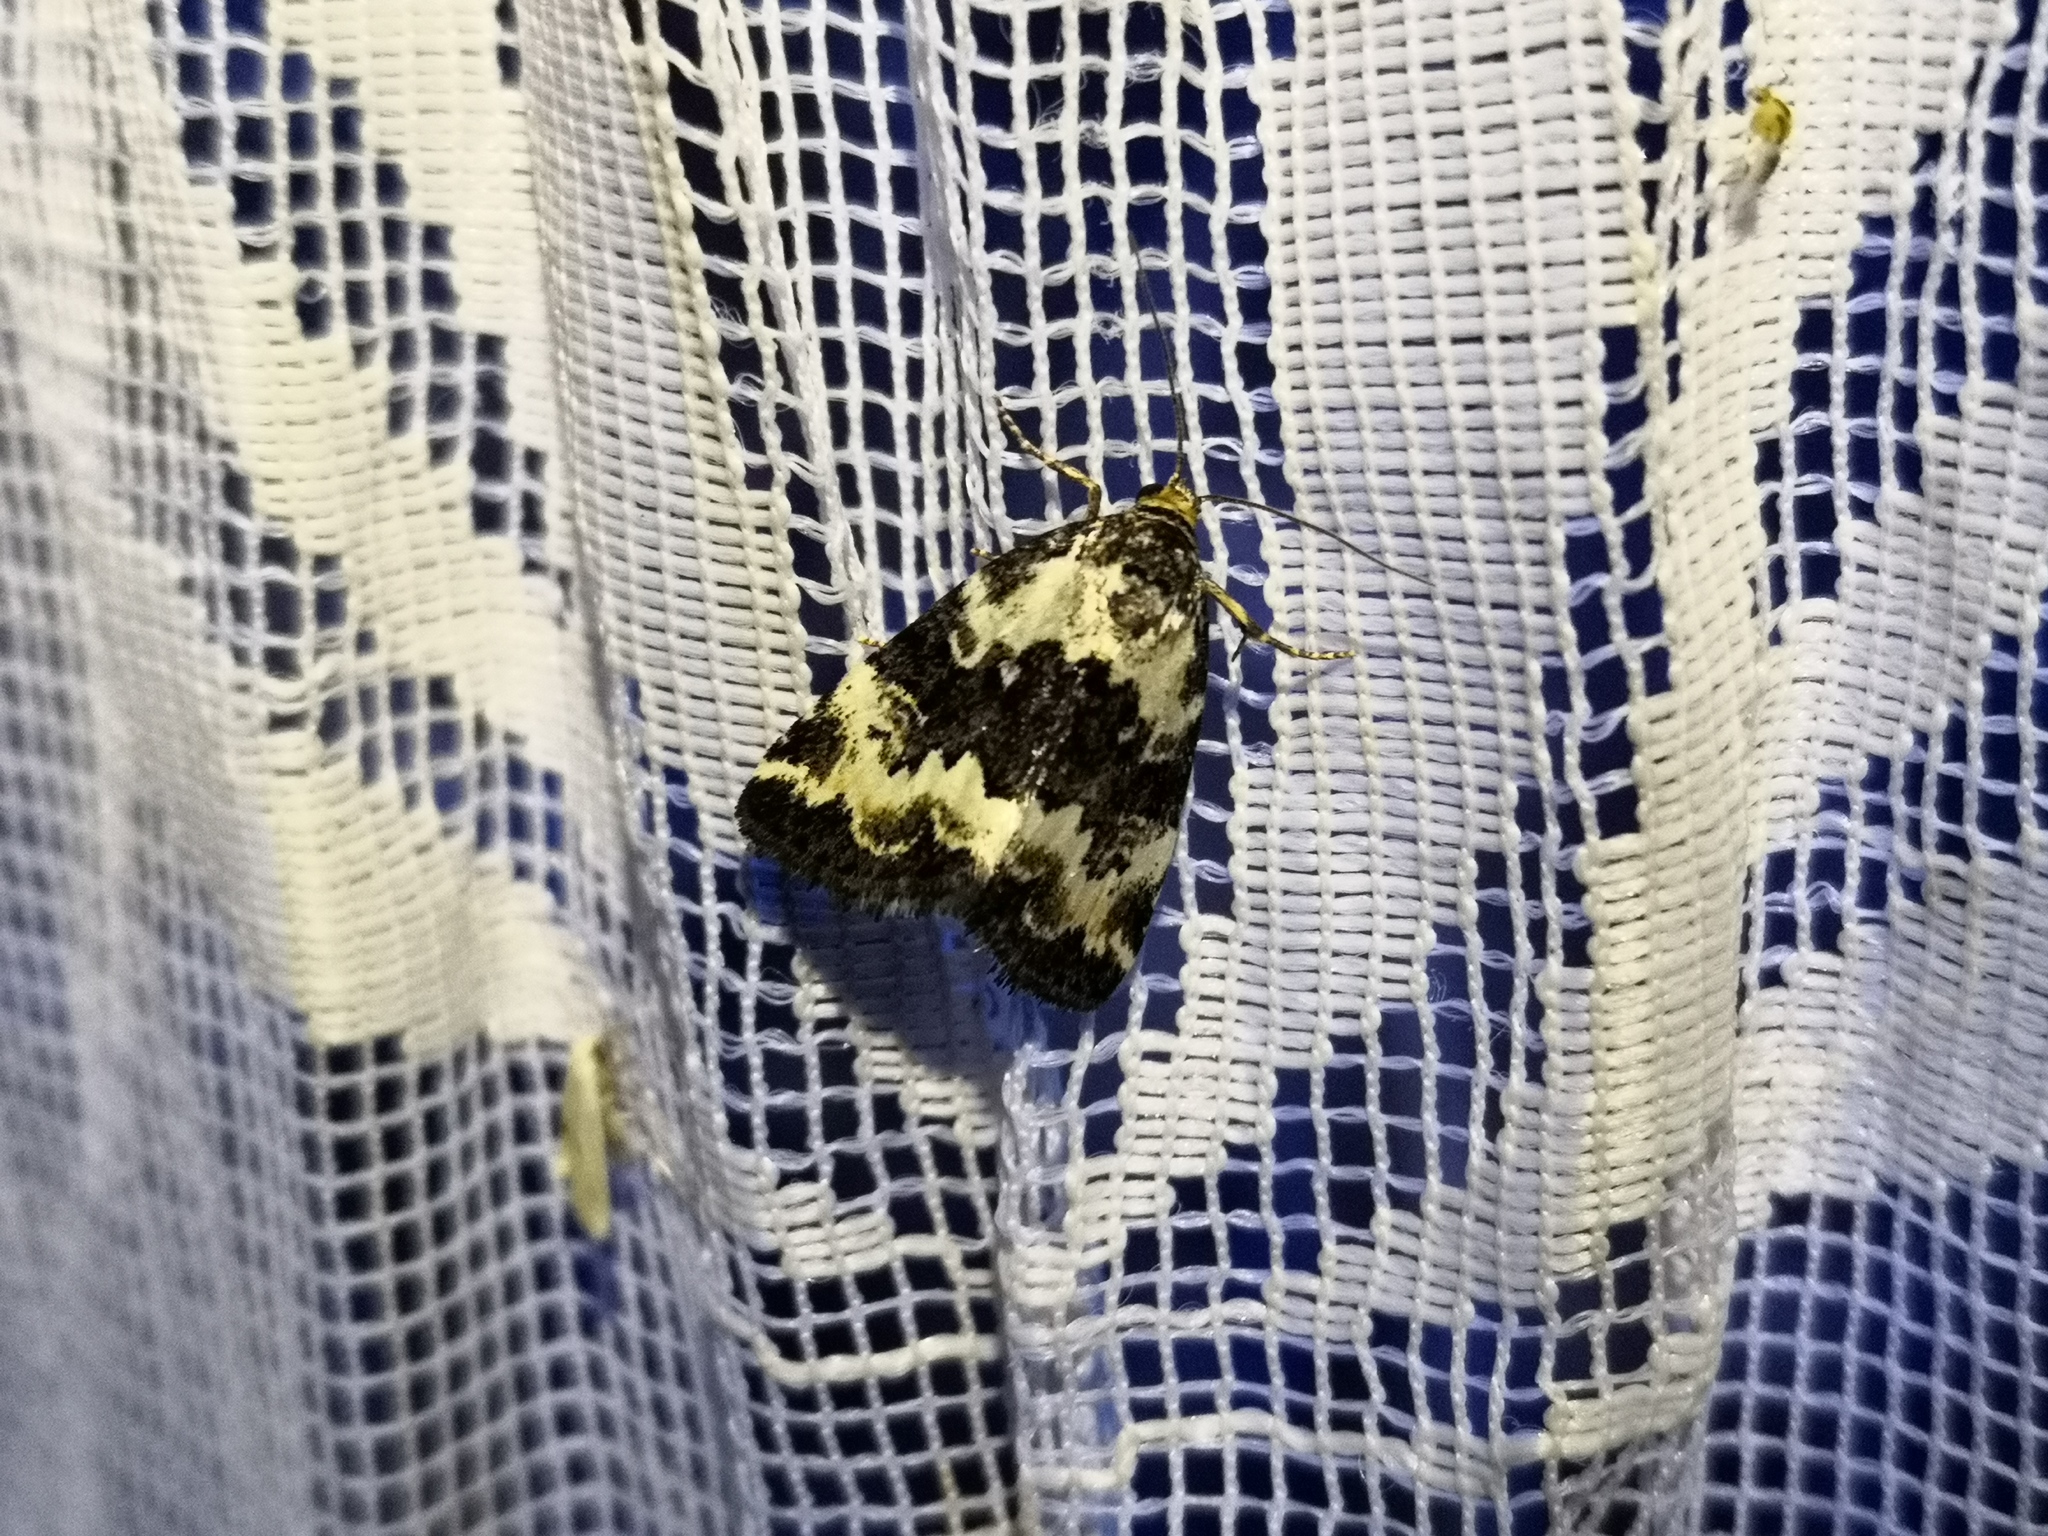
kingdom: Animalia
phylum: Arthropoda
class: Insecta
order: Lepidoptera
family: Noctuidae
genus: Deltote
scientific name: Deltote deceptoria
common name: Pretty marbled
